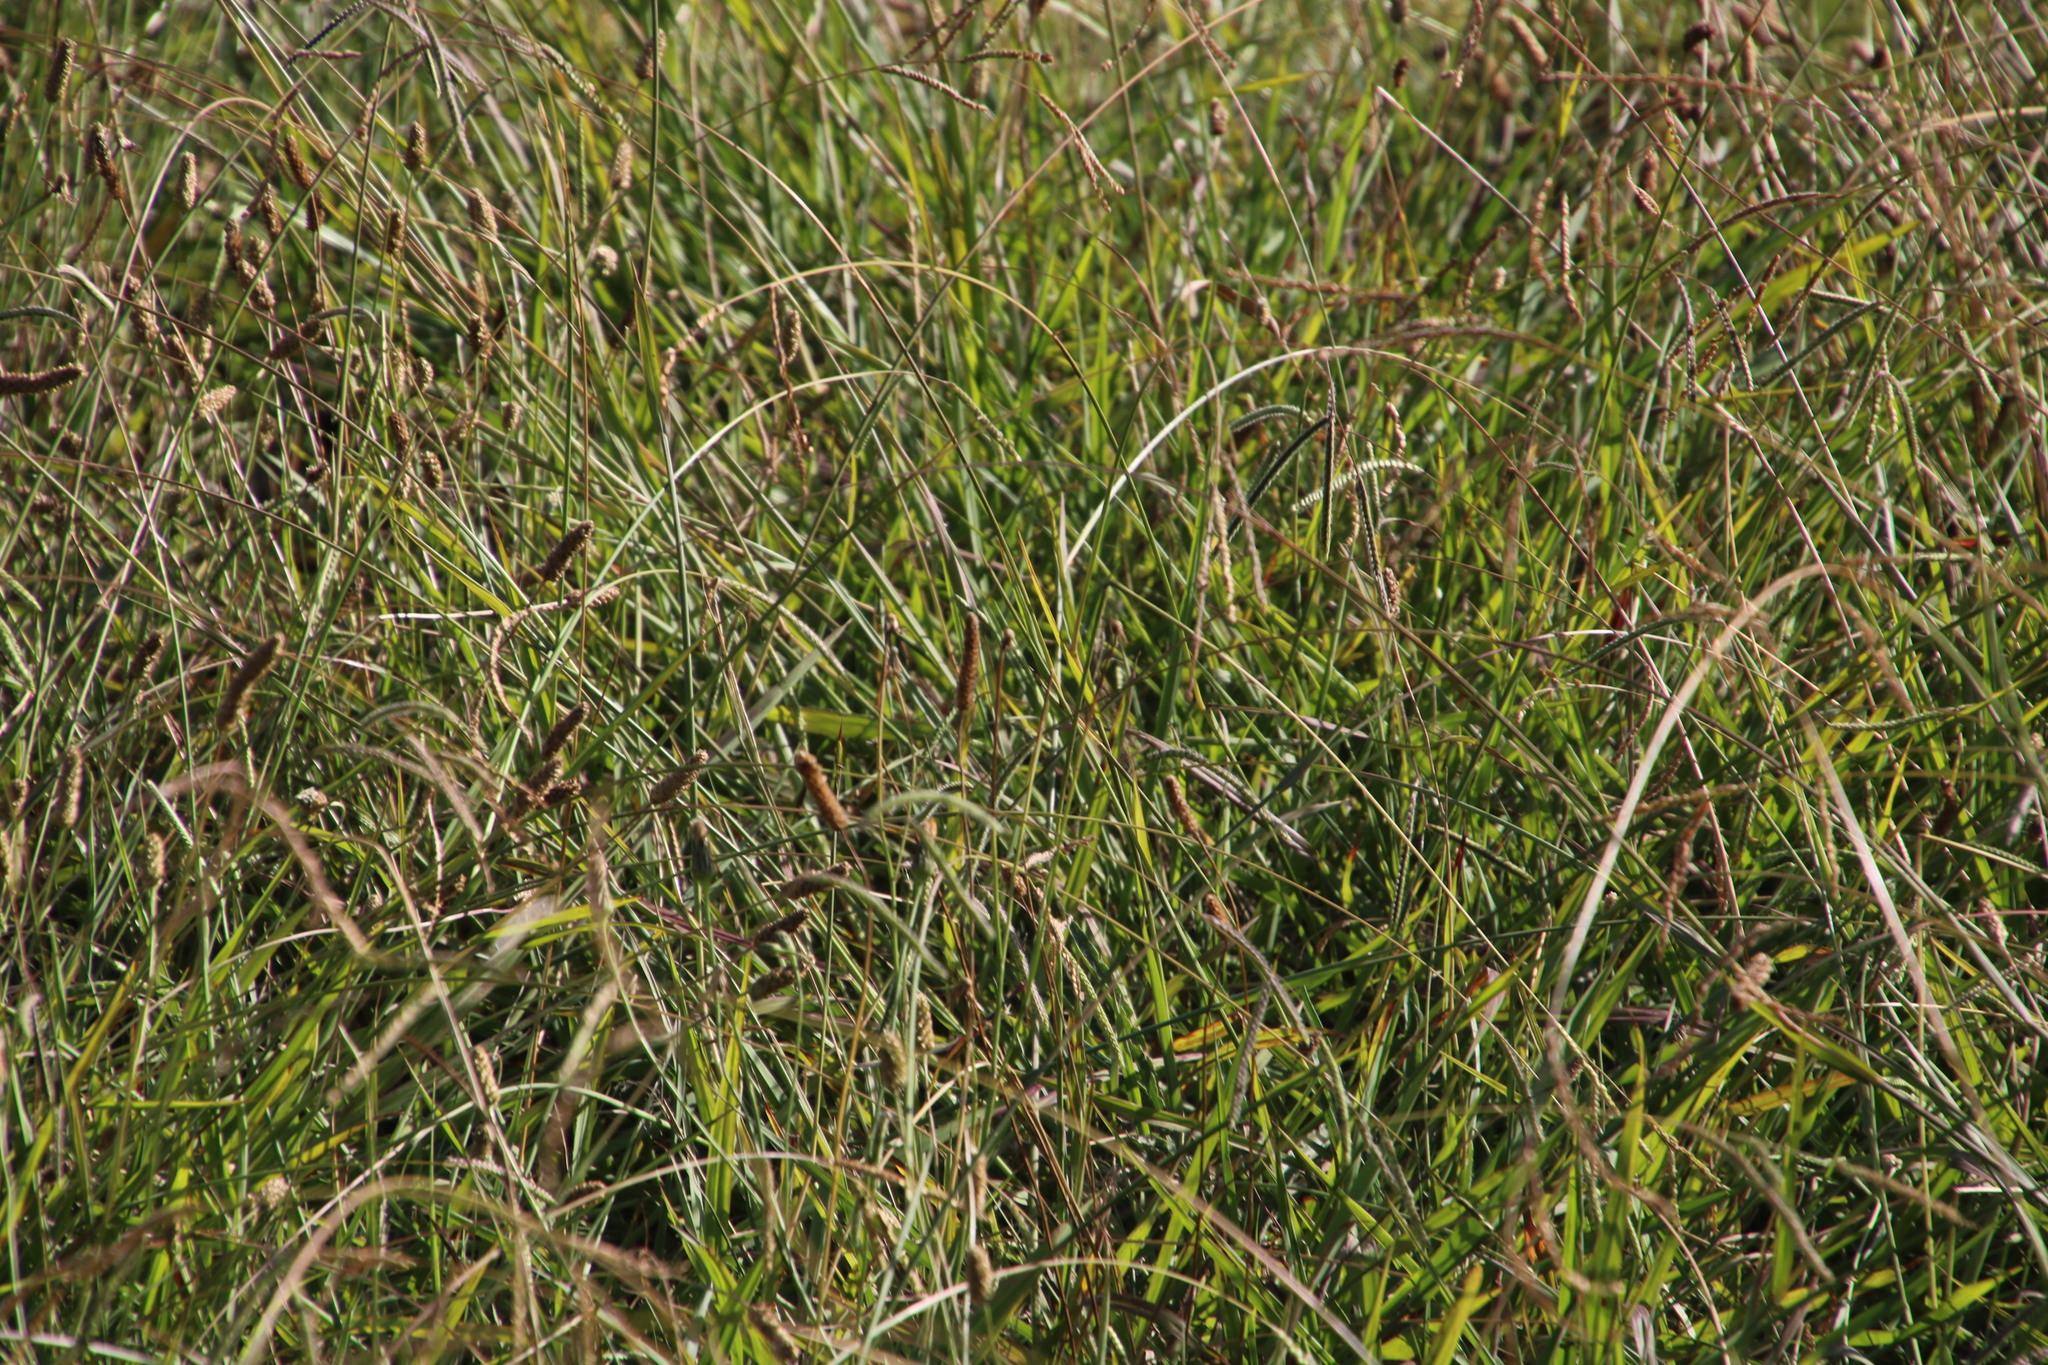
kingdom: Plantae
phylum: Tracheophyta
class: Liliopsida
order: Poales
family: Poaceae
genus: Paspalum
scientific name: Paspalum dilatatum
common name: Dallisgrass
